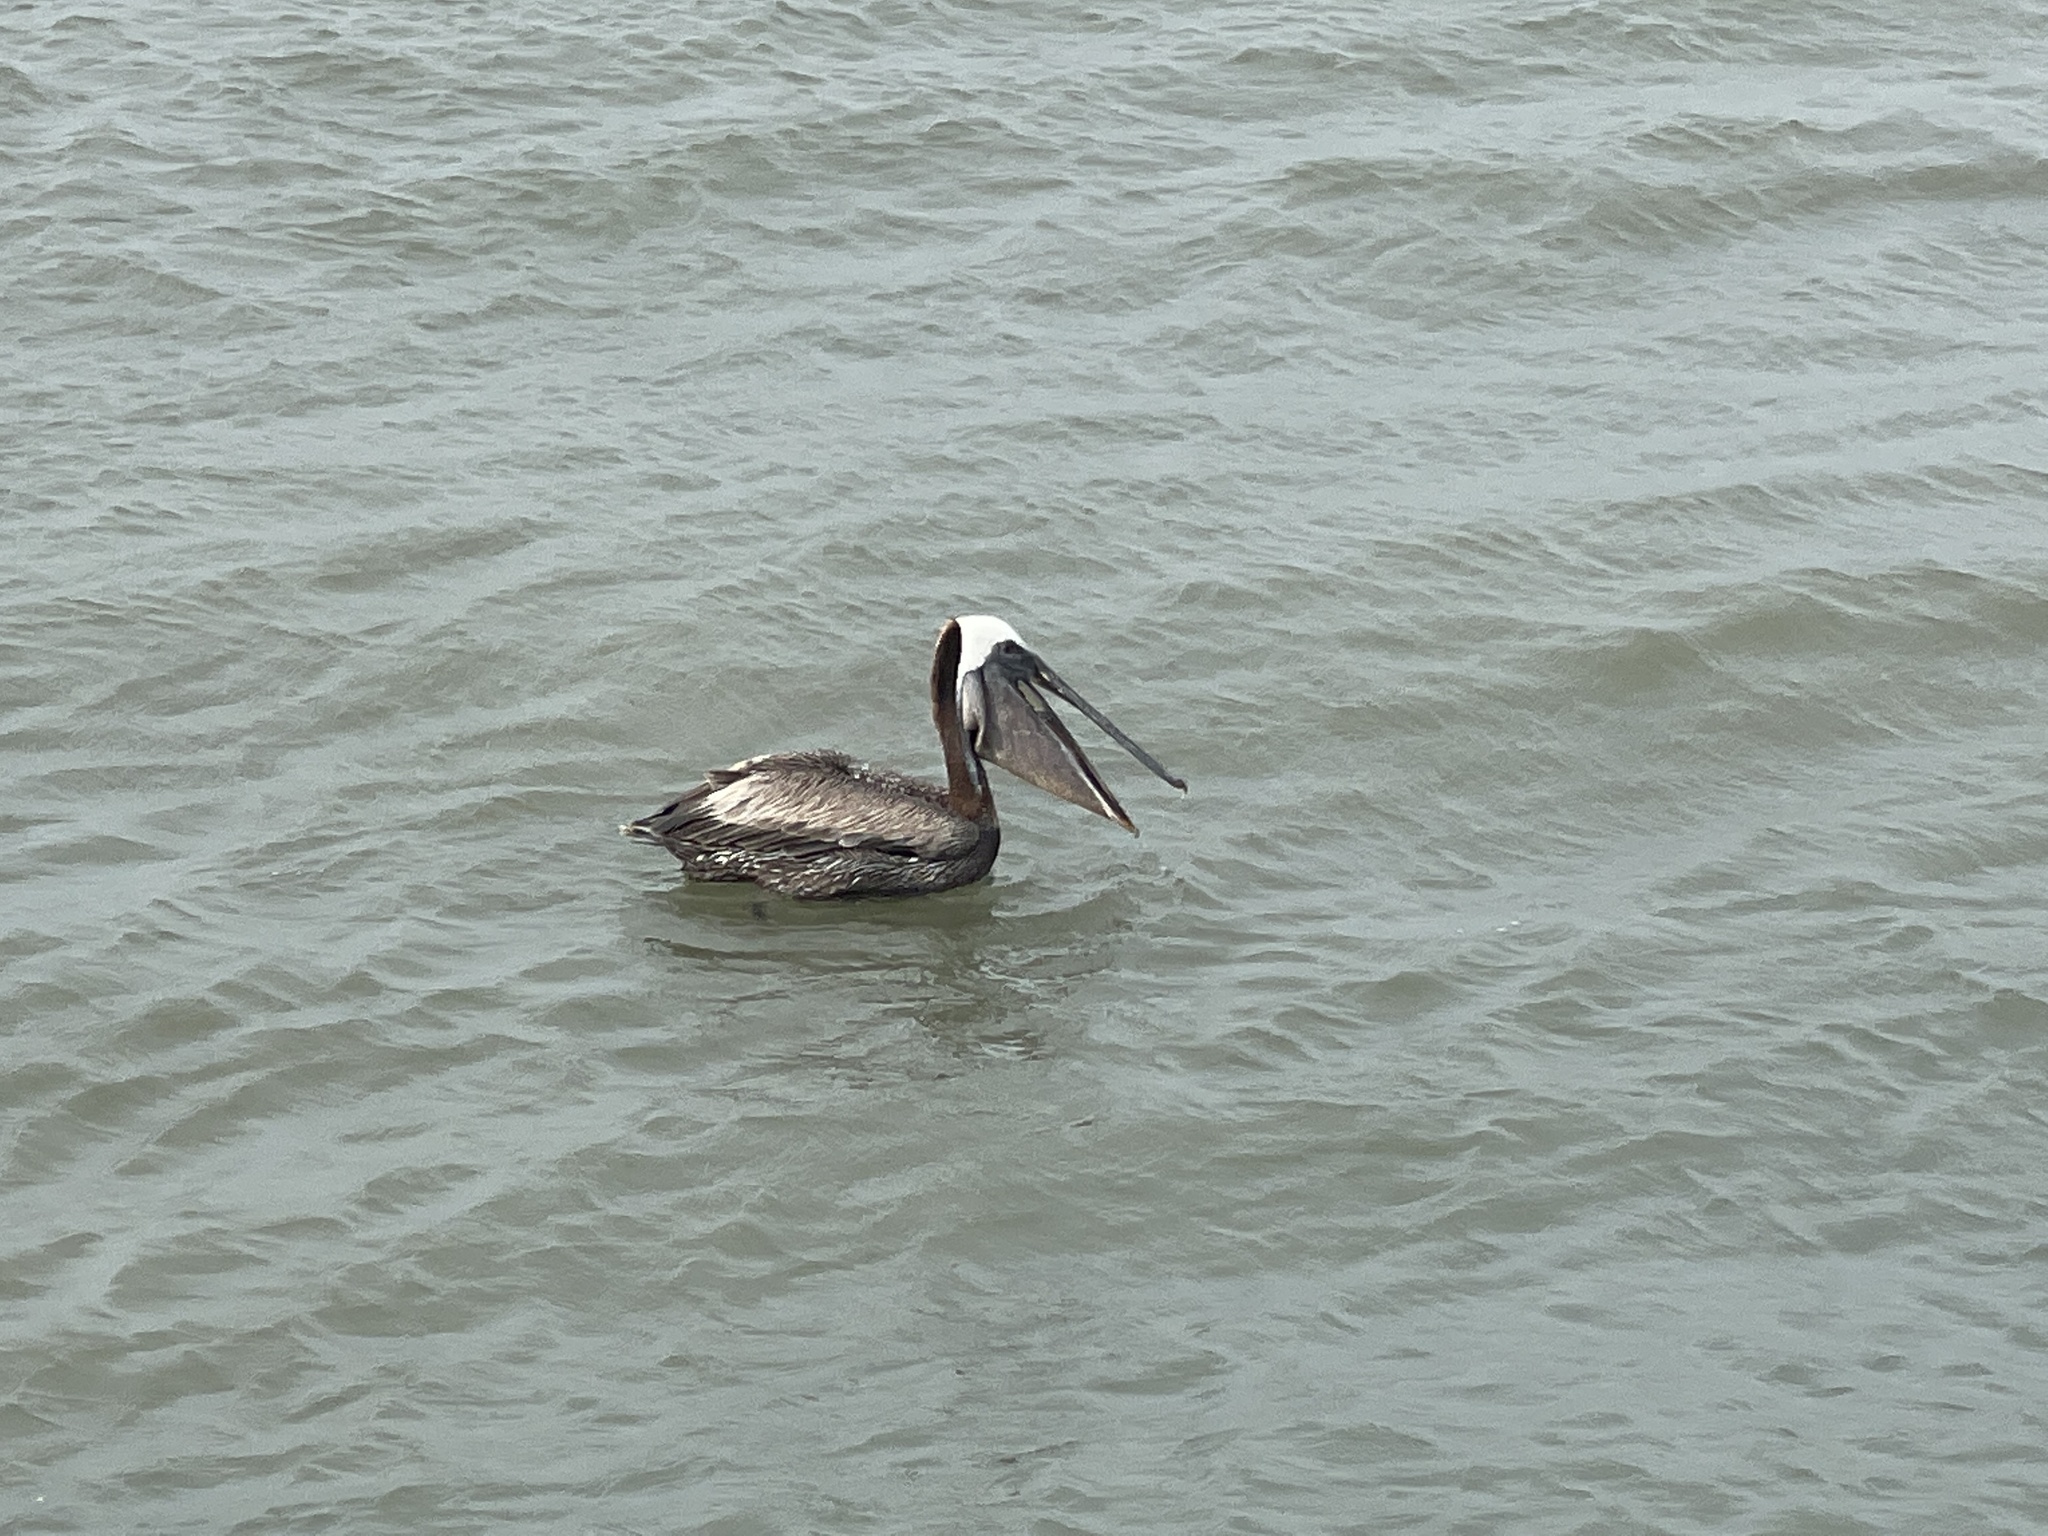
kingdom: Animalia
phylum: Chordata
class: Aves
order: Pelecaniformes
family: Pelecanidae
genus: Pelecanus
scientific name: Pelecanus occidentalis
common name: Brown pelican
